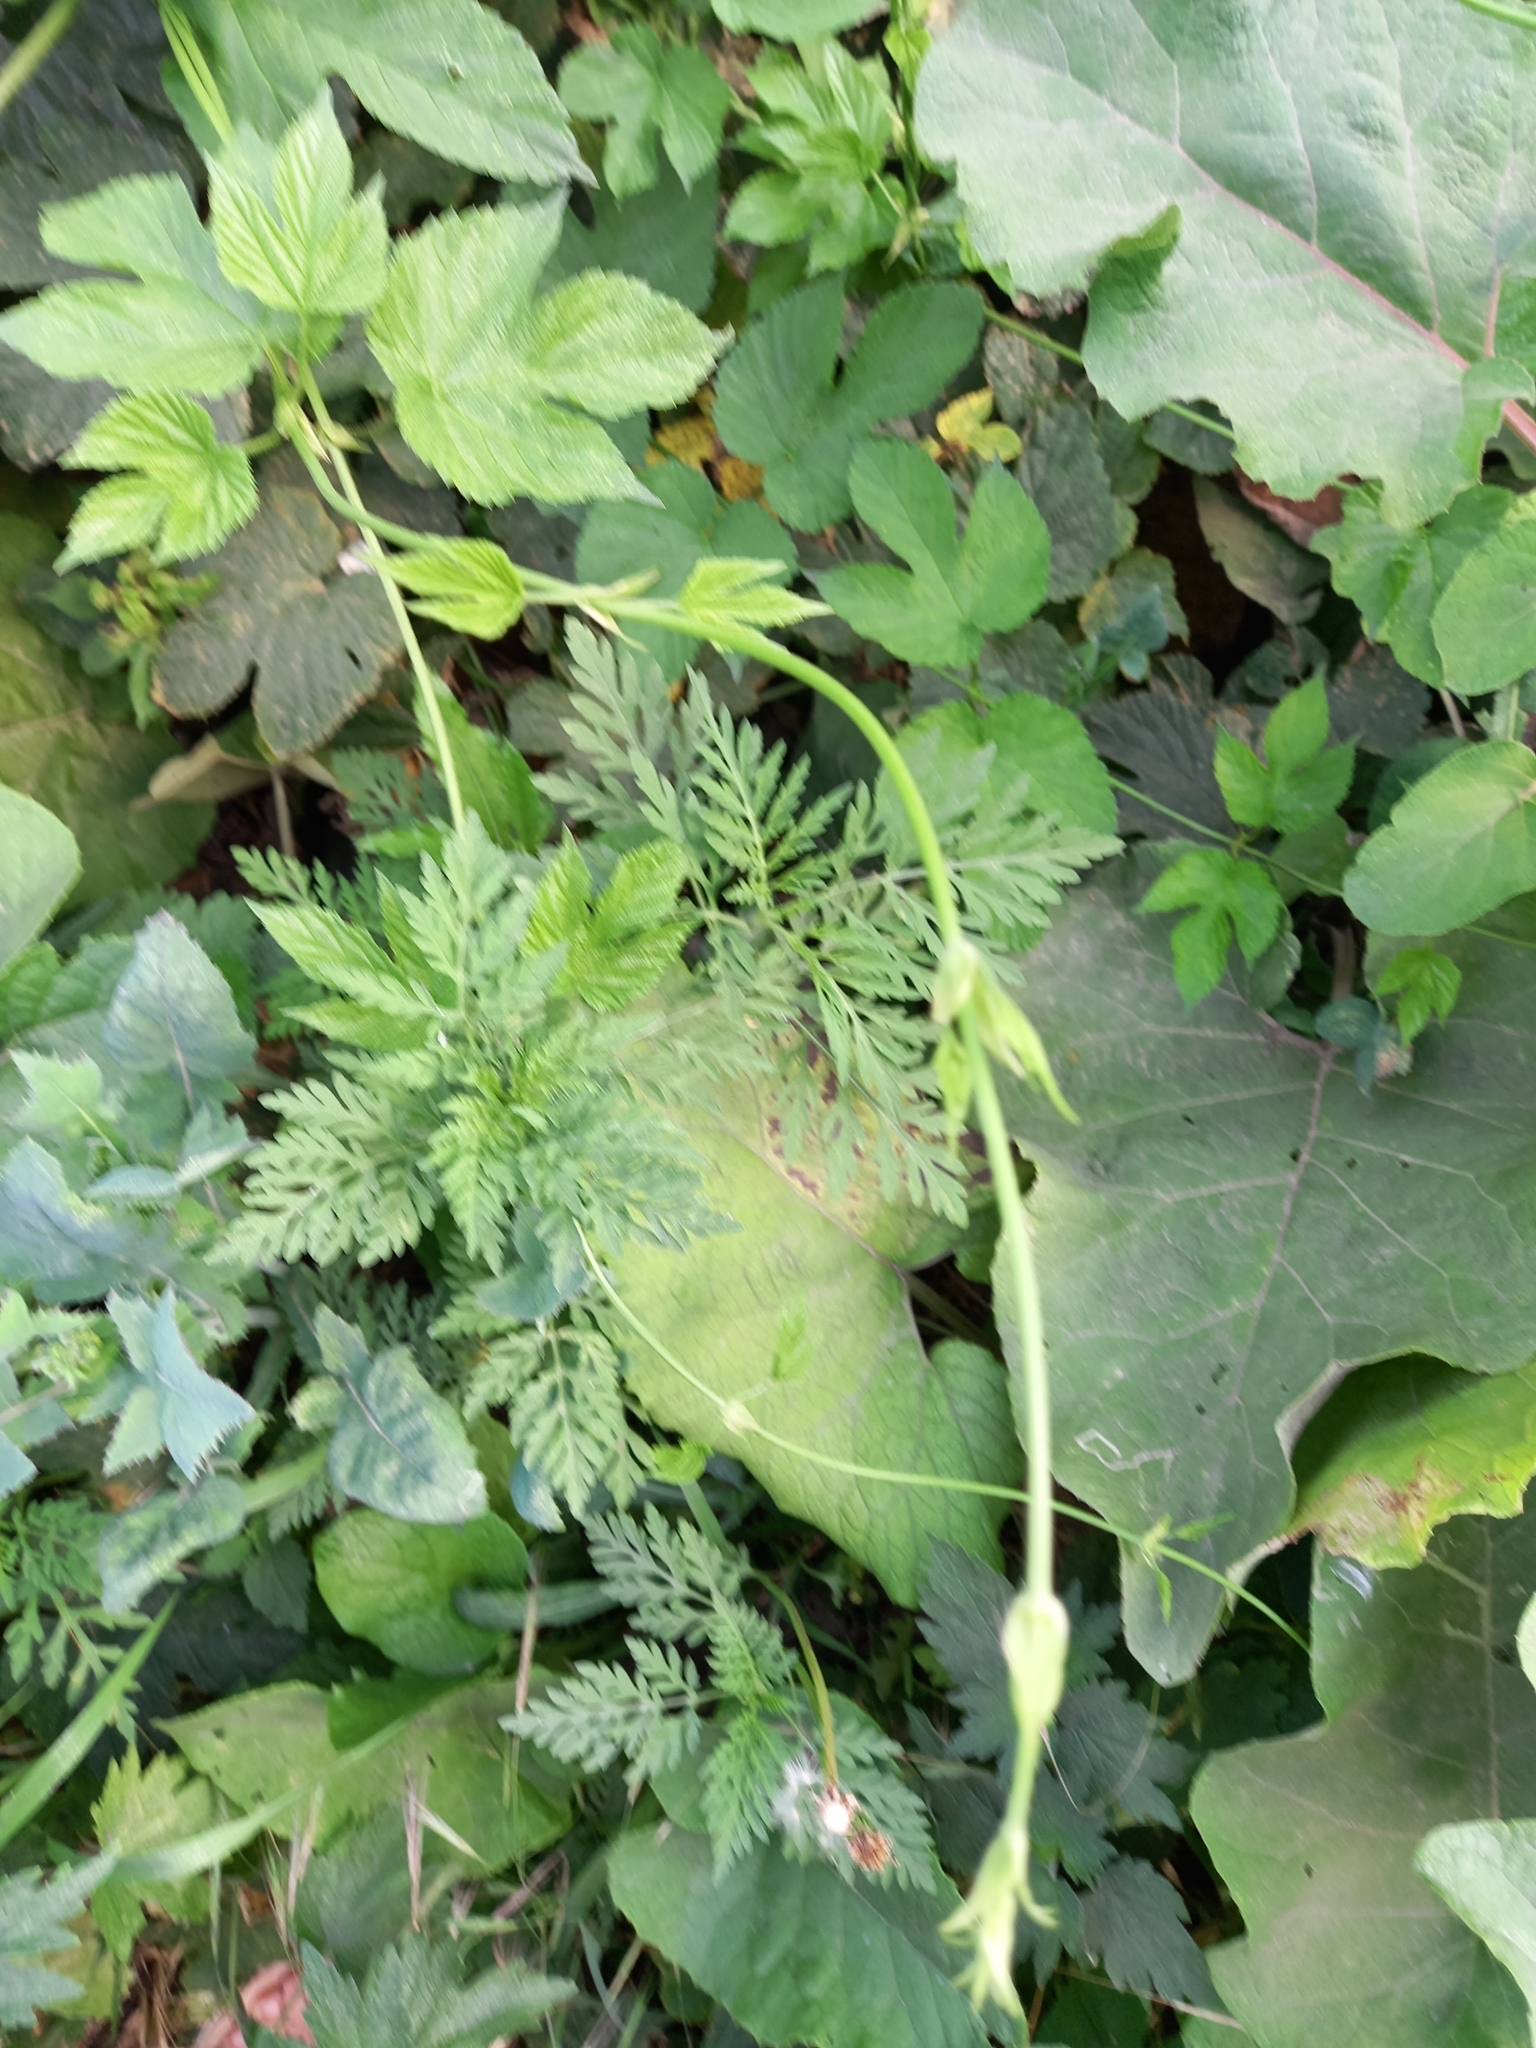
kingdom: Plantae
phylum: Tracheophyta
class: Magnoliopsida
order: Rosales
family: Cannabaceae
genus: Humulus
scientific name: Humulus lupulus
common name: Hop
